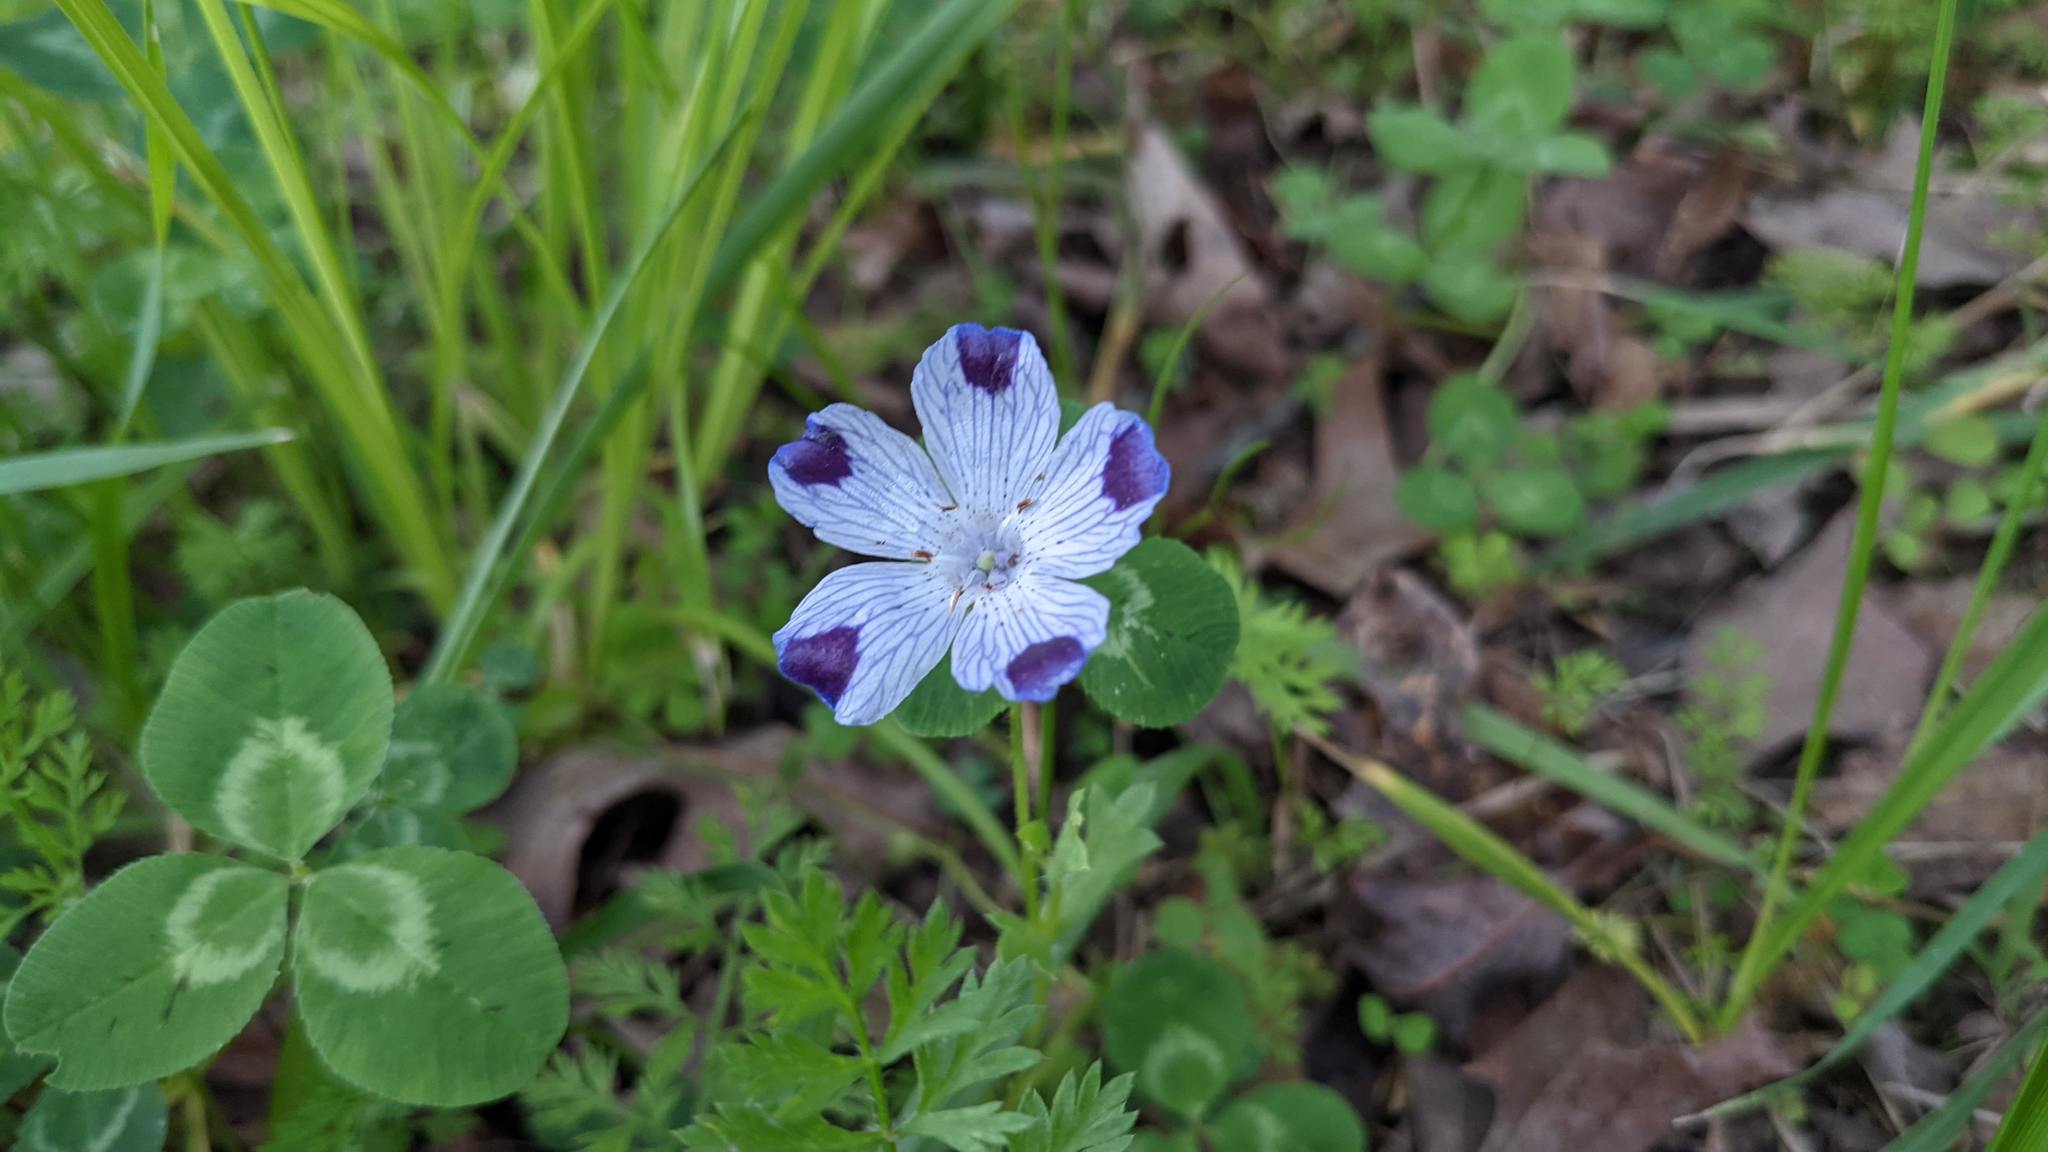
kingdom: Plantae
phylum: Tracheophyta
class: Magnoliopsida
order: Boraginales
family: Hydrophyllaceae
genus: Nemophila
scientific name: Nemophila maculata
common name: Fivespot
